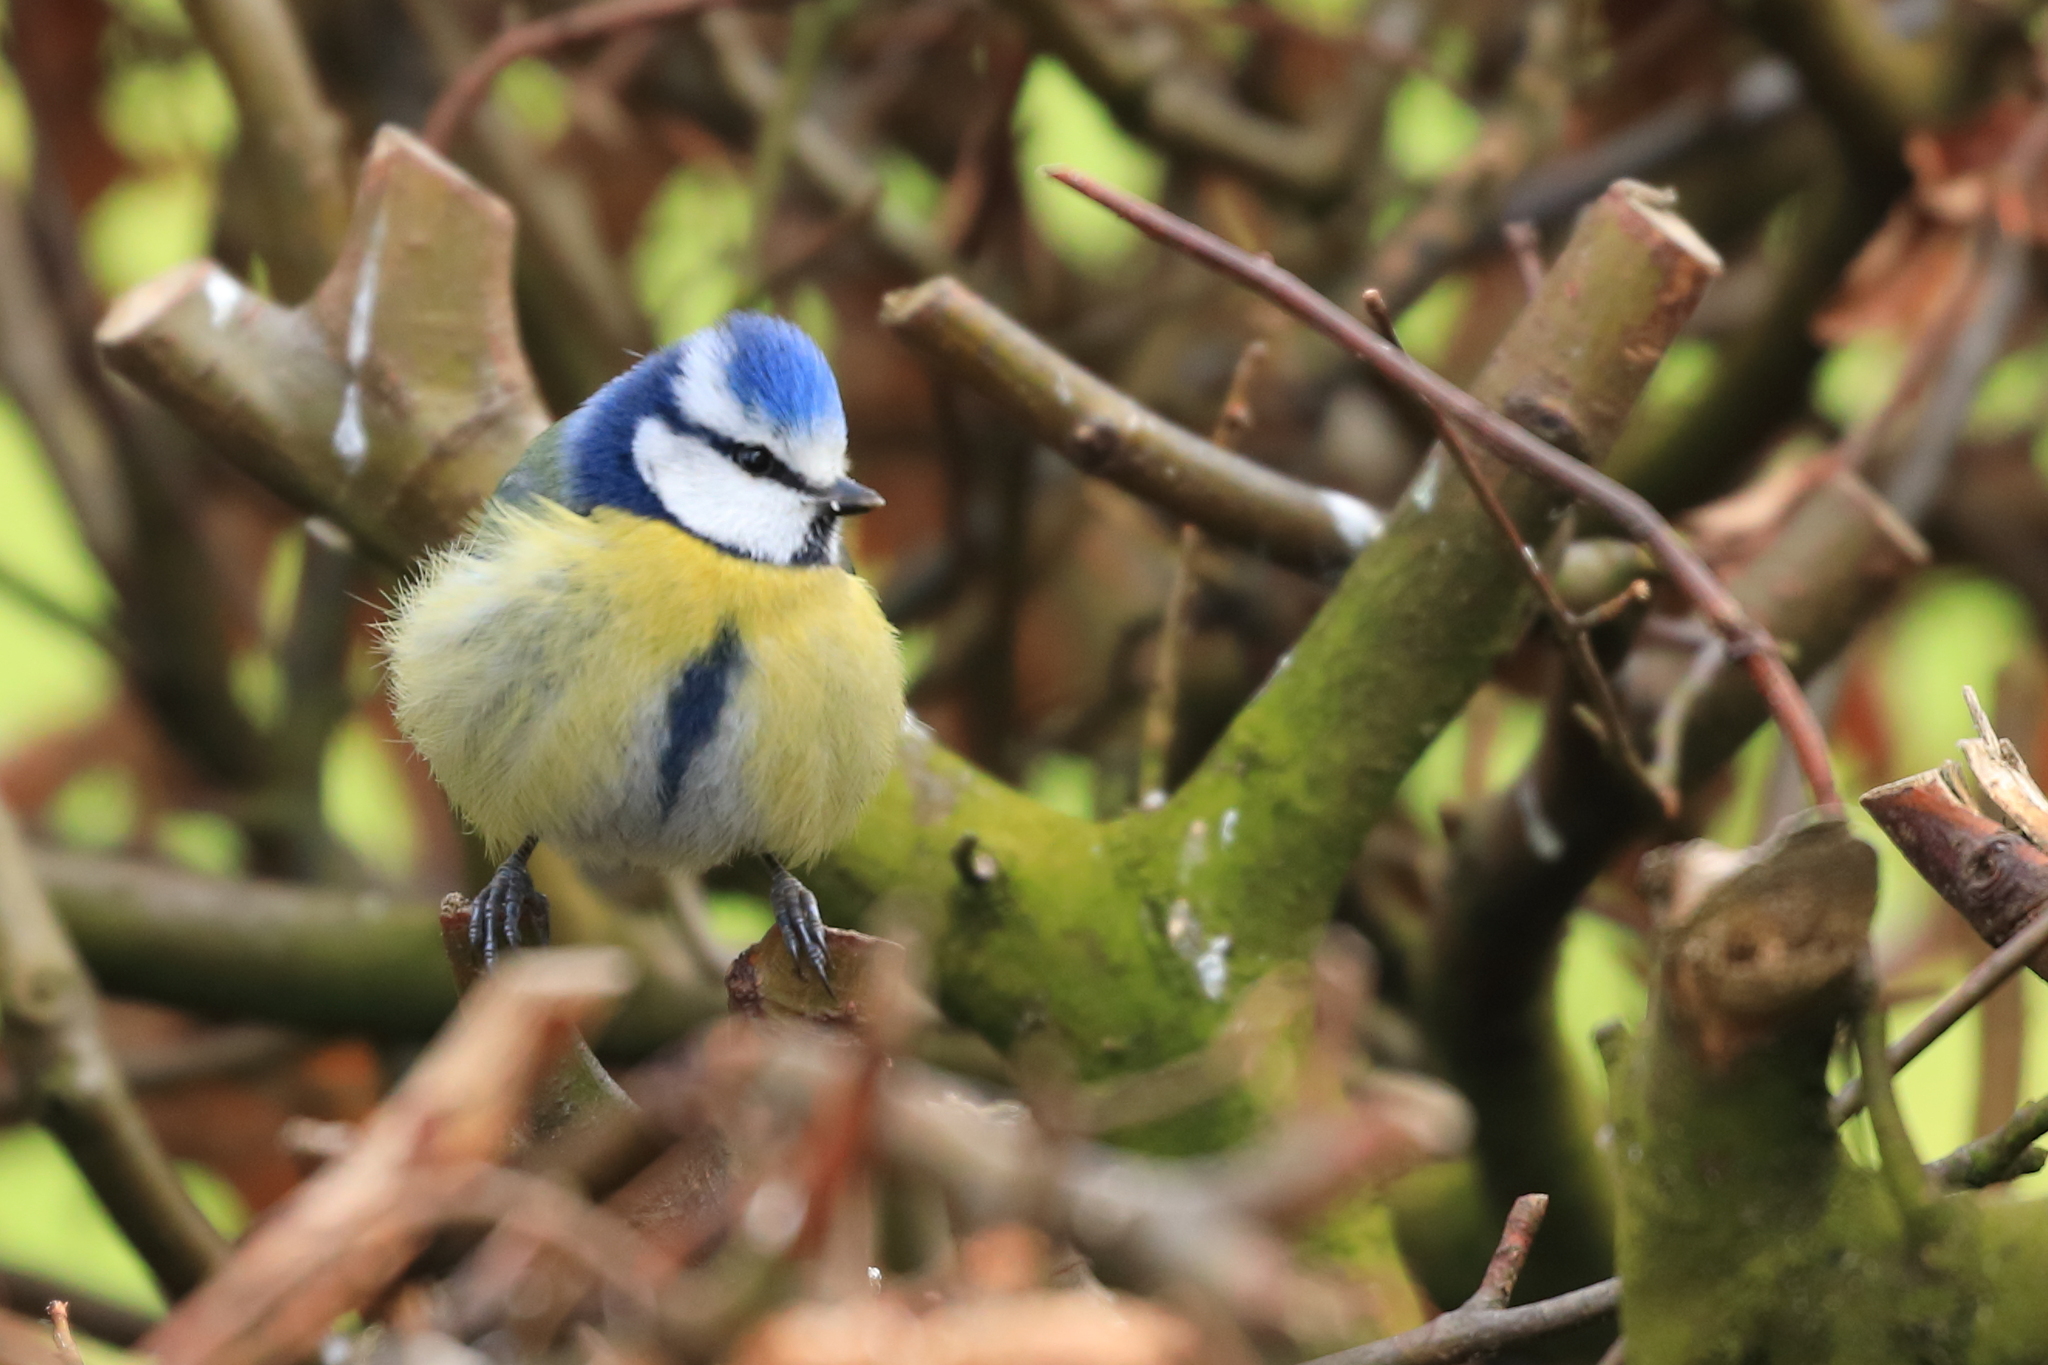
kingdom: Animalia
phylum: Chordata
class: Aves
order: Passeriformes
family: Paridae
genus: Cyanistes
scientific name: Cyanistes caeruleus
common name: Eurasian blue tit
